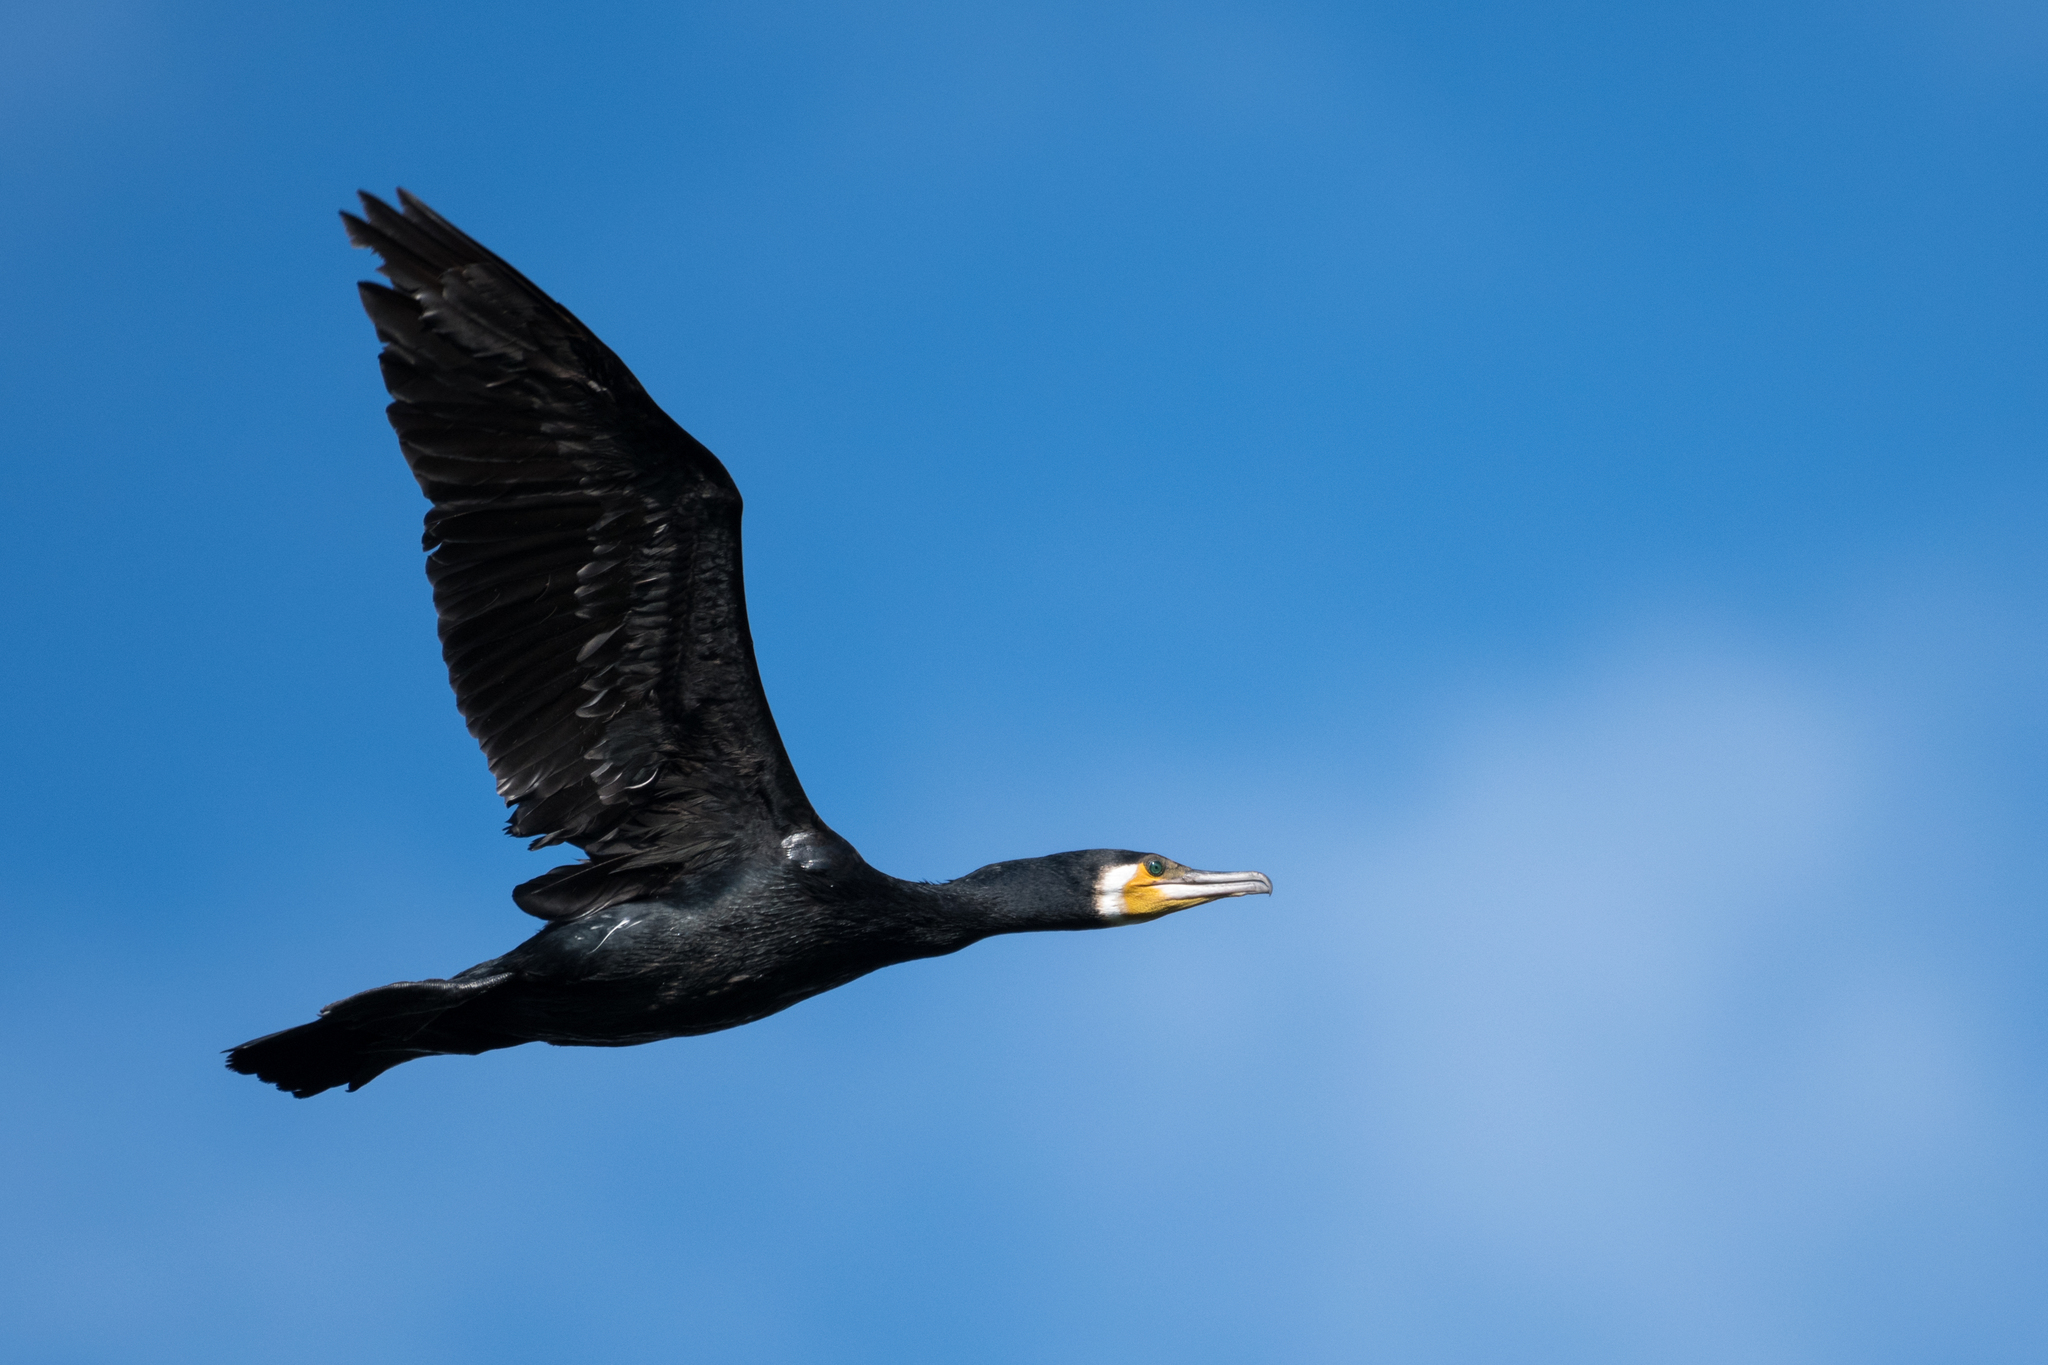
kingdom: Animalia
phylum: Chordata
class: Aves
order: Suliformes
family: Phalacrocoracidae
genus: Phalacrocorax
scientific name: Phalacrocorax carbo
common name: Great cormorant
